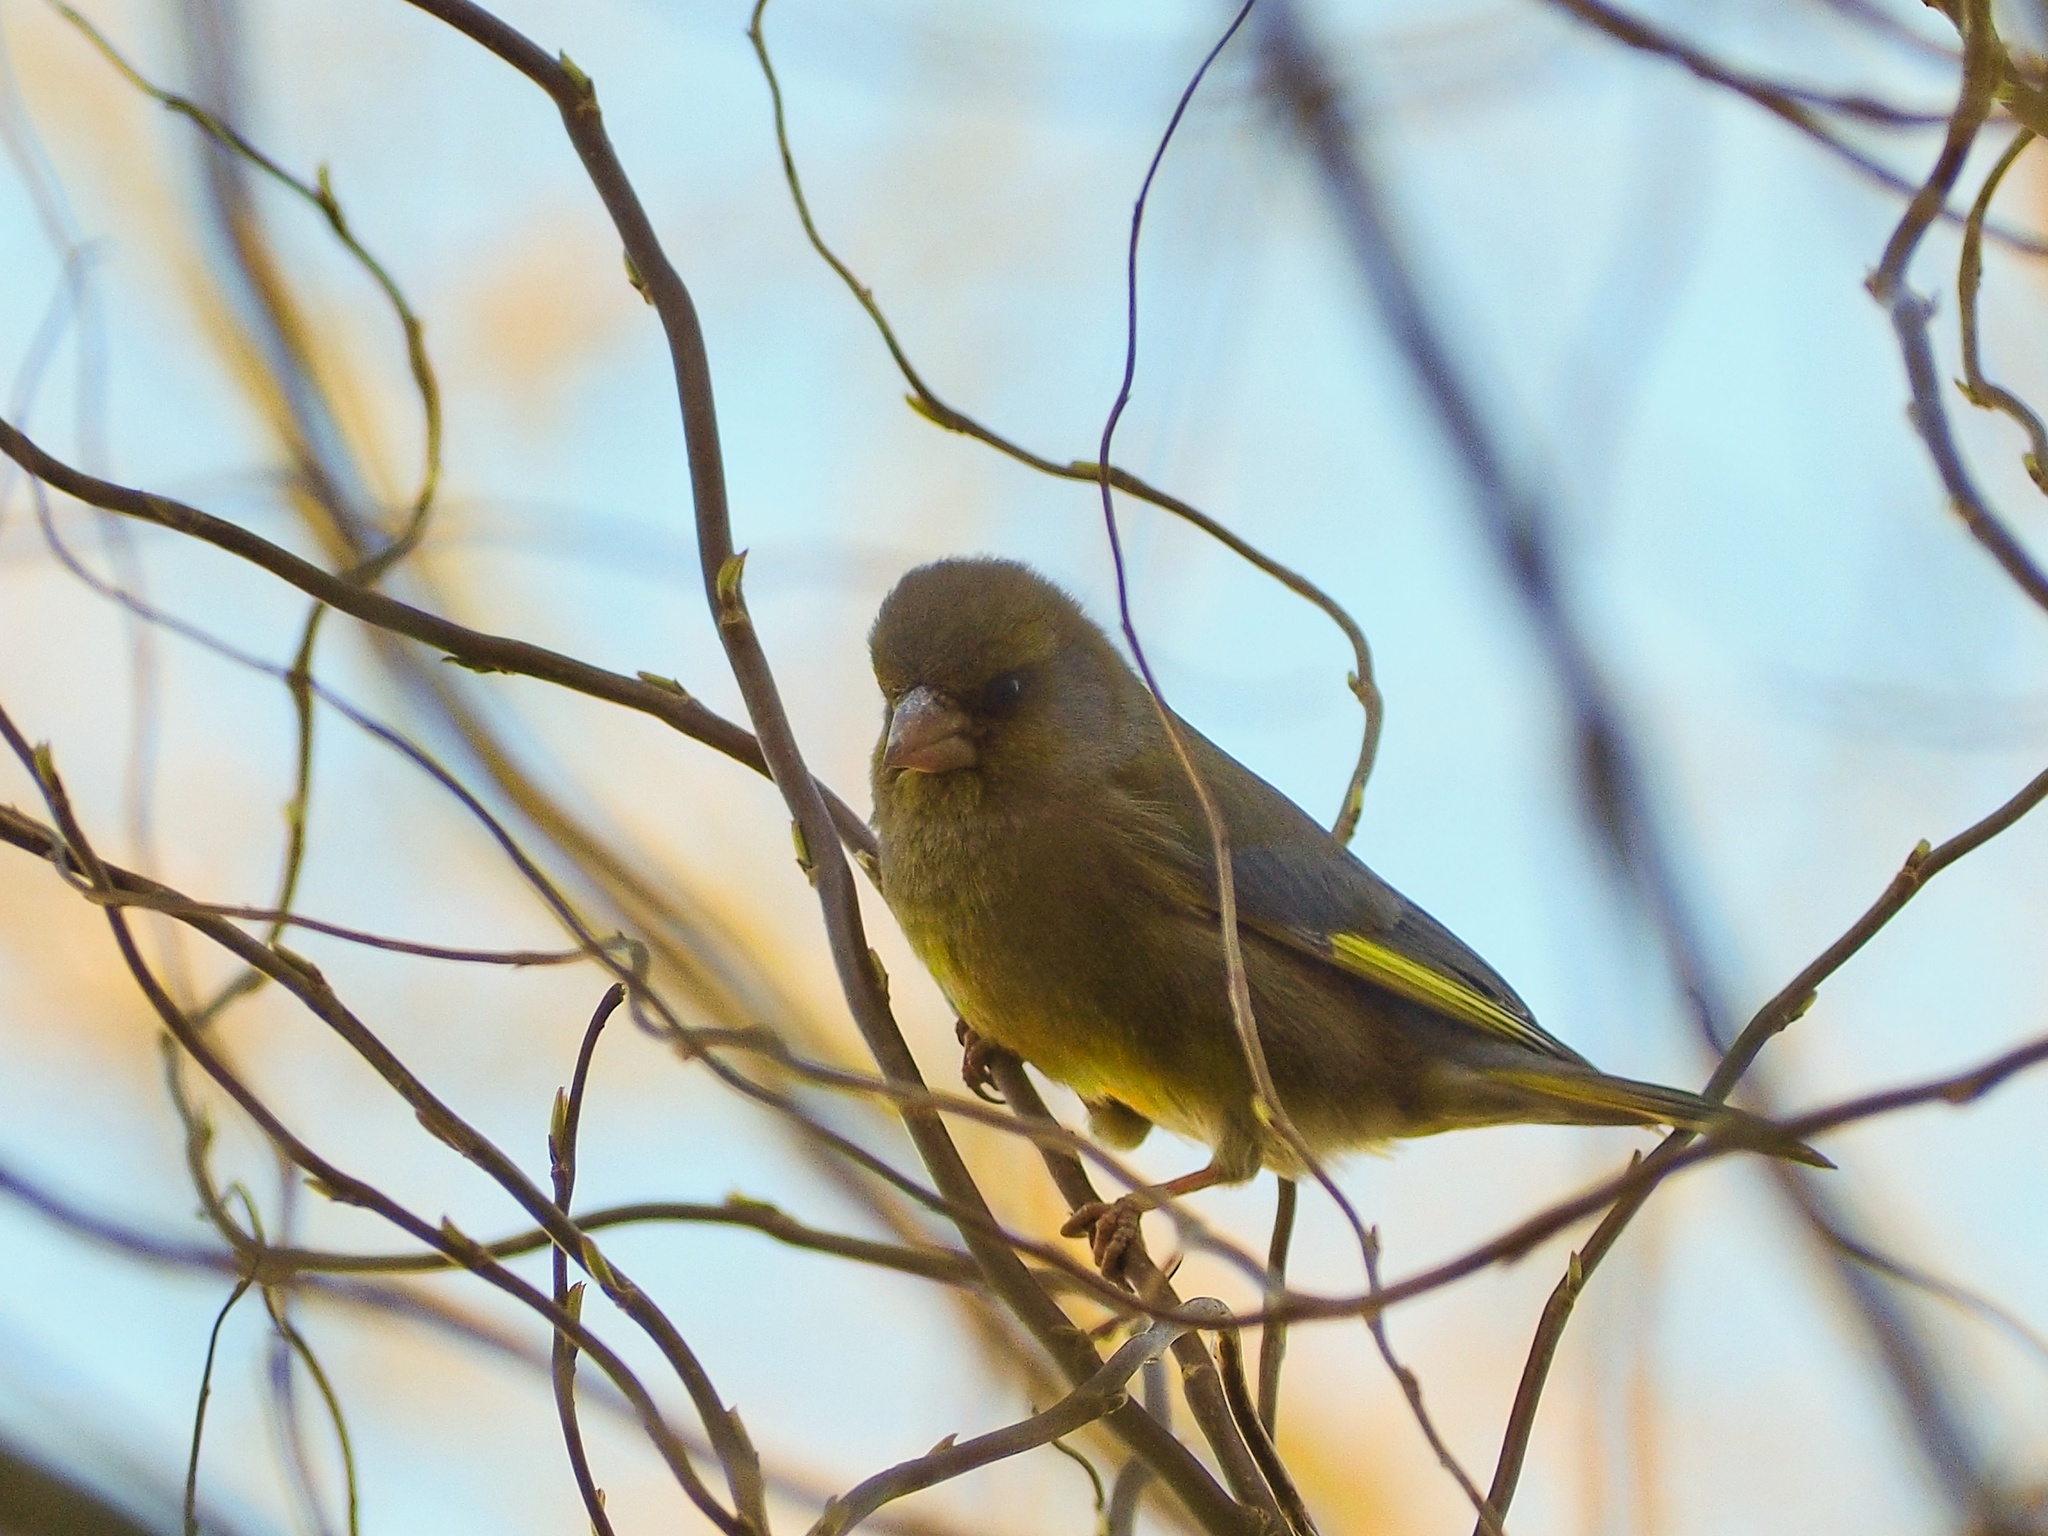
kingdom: Plantae
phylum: Tracheophyta
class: Liliopsida
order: Poales
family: Poaceae
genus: Chloris
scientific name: Chloris chloris
